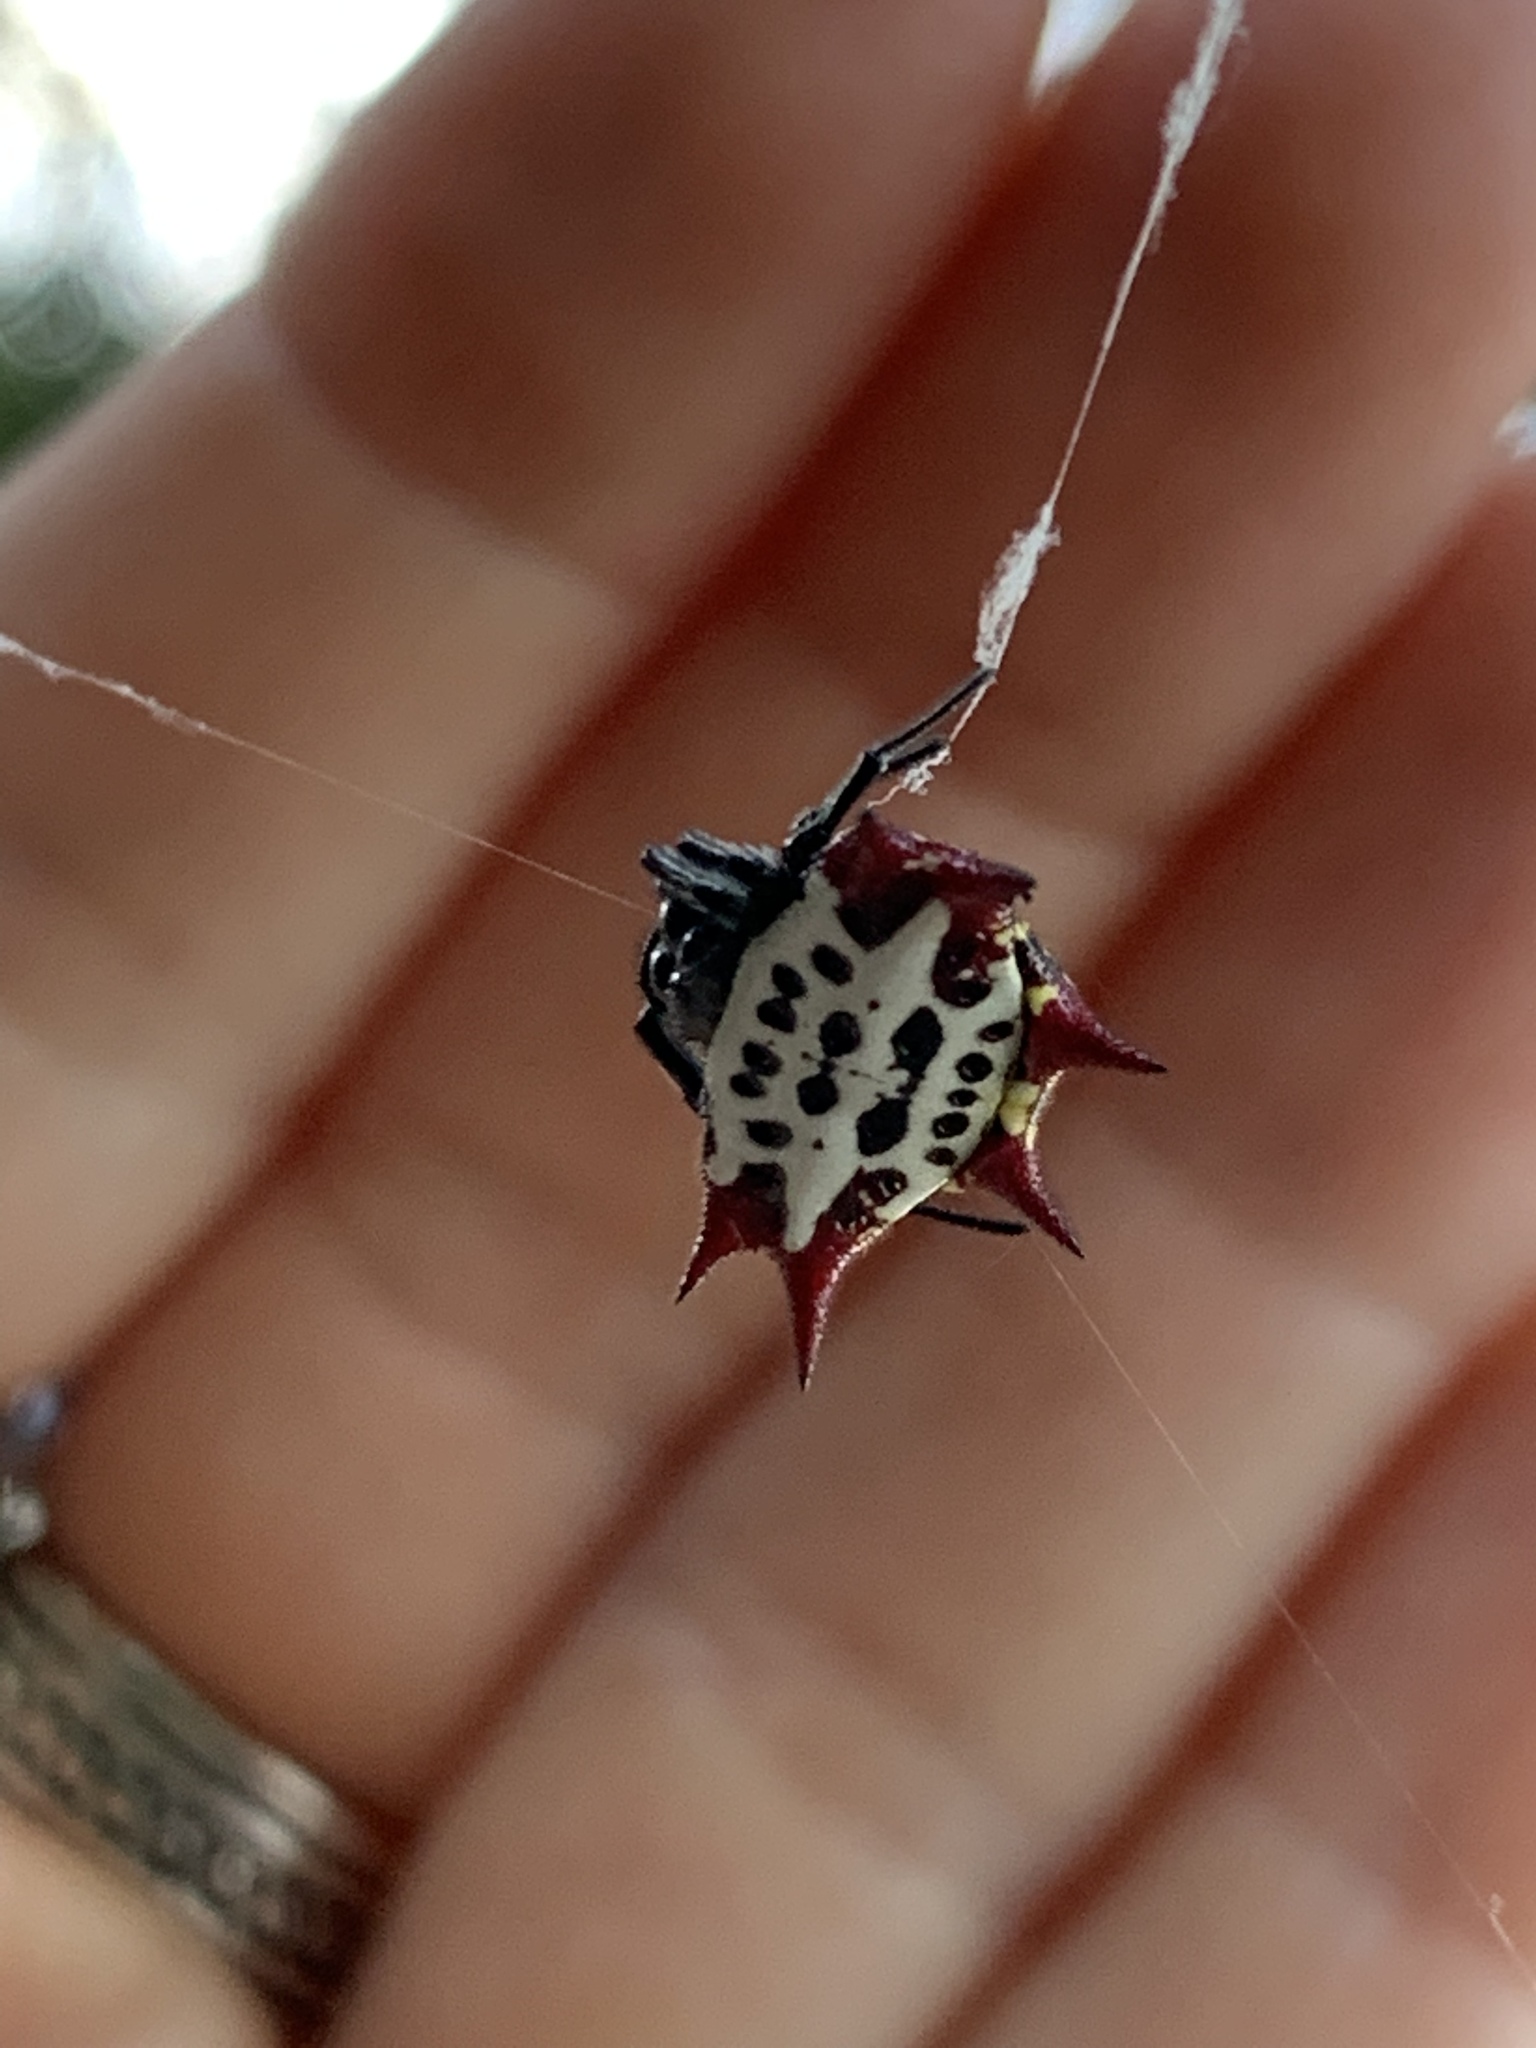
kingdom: Animalia
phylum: Arthropoda
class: Arachnida
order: Araneae
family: Araneidae
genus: Gasteracantha
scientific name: Gasteracantha cancriformis
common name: Orb weavers
